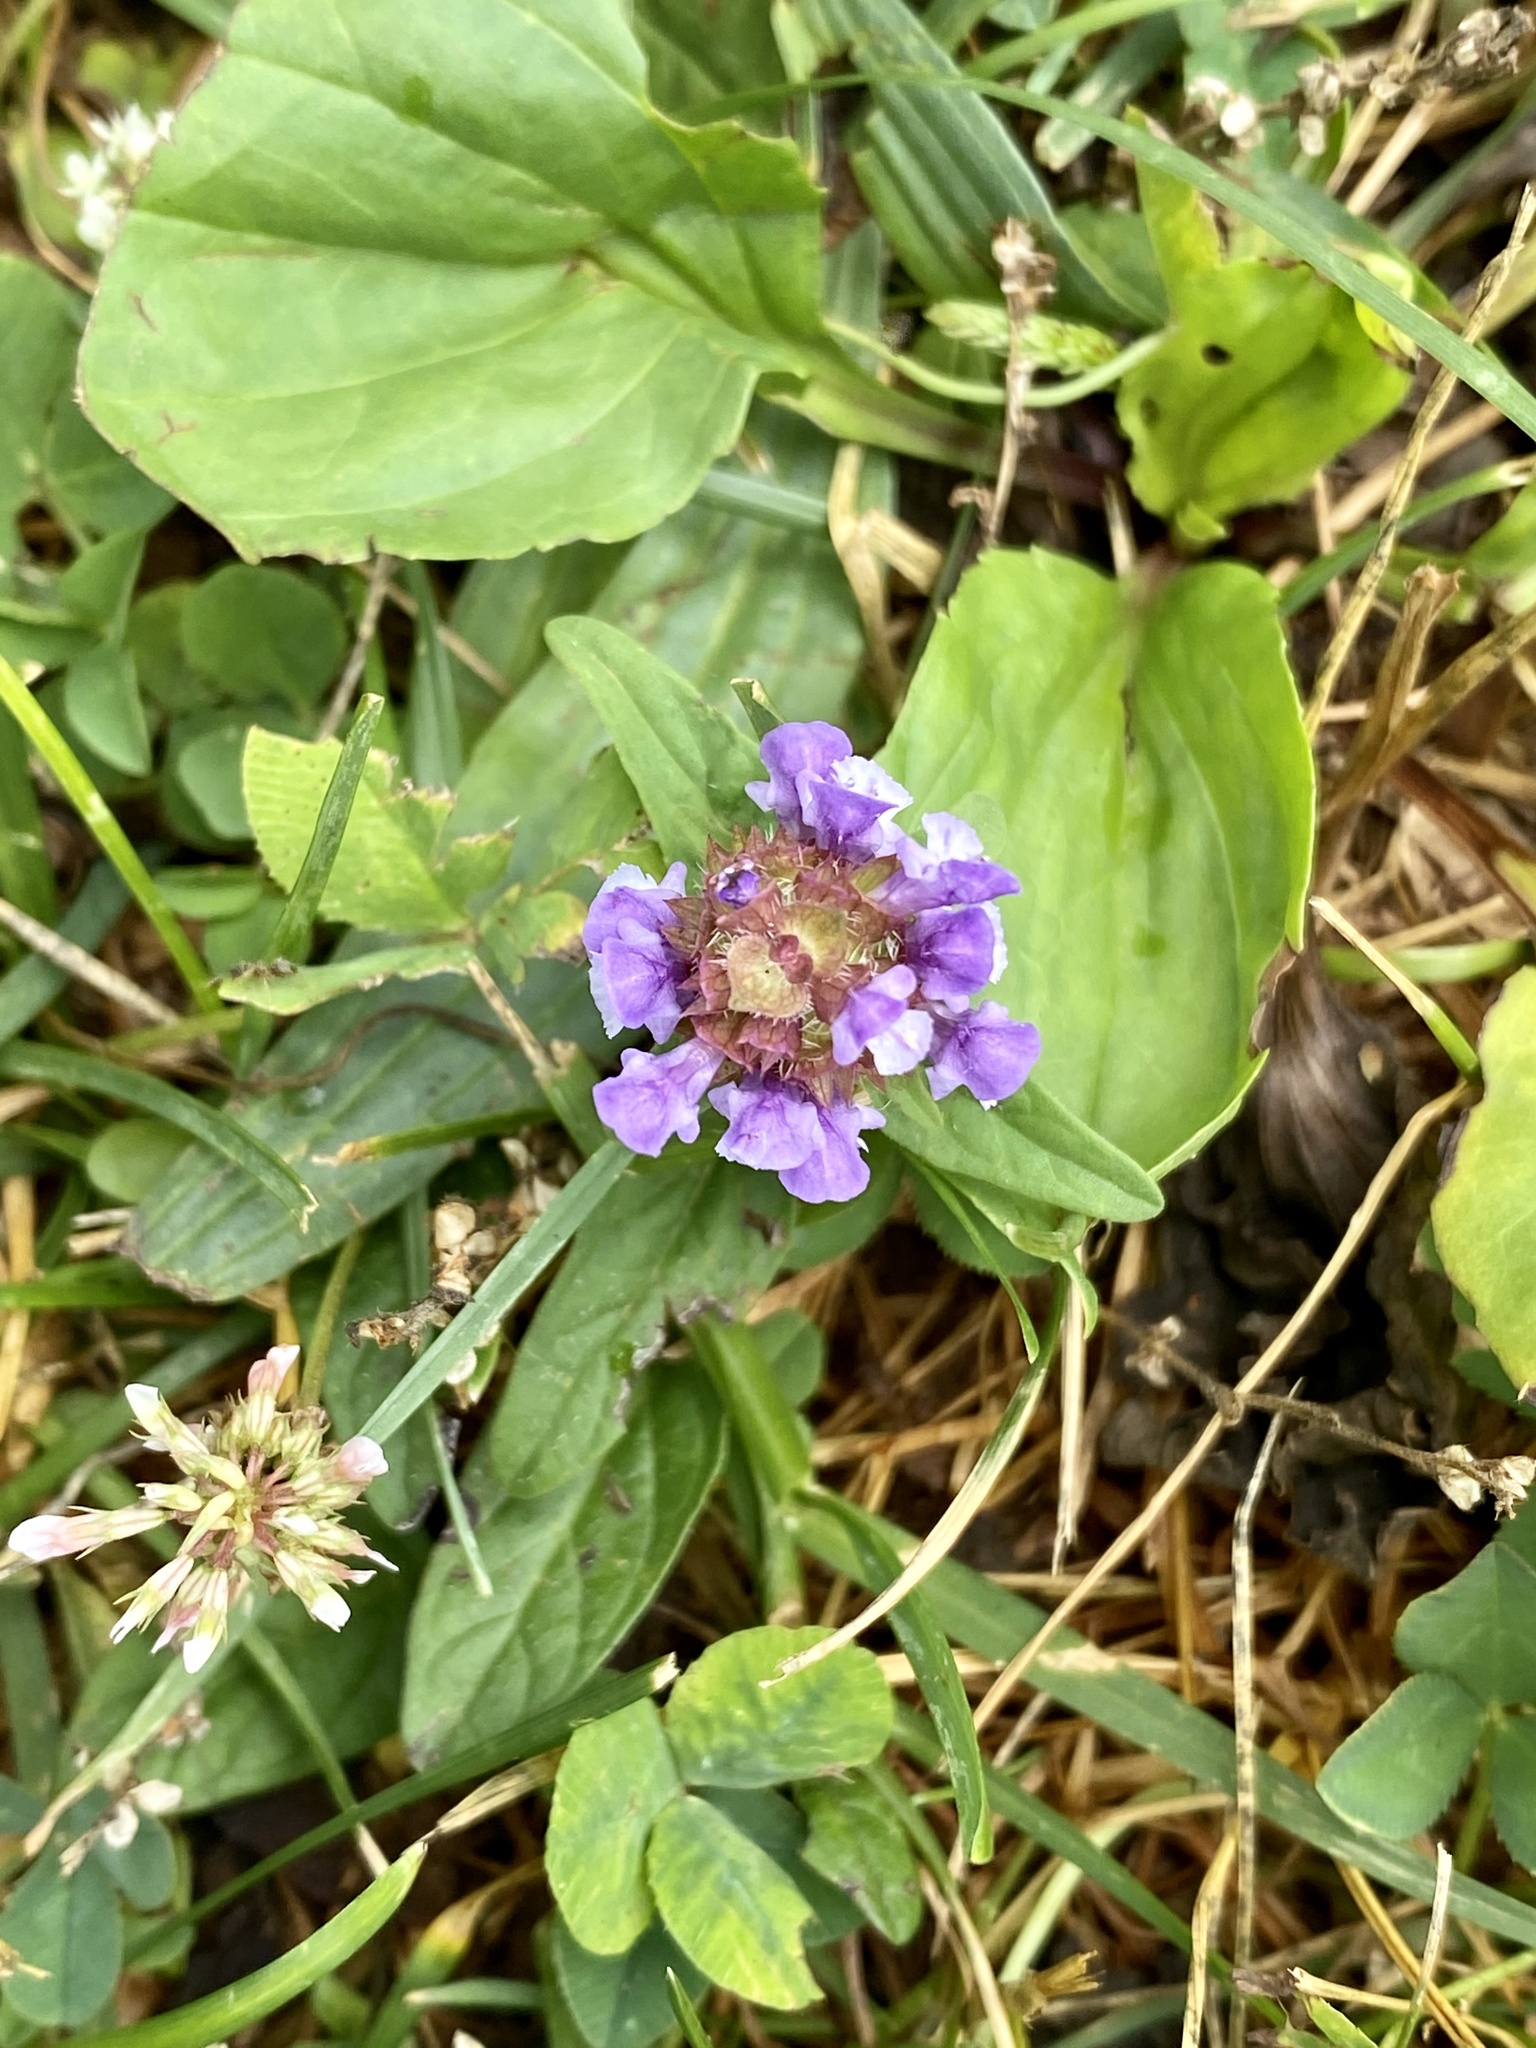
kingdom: Plantae
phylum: Tracheophyta
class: Magnoliopsida
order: Lamiales
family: Lamiaceae
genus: Prunella
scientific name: Prunella vulgaris
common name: Heal-all
